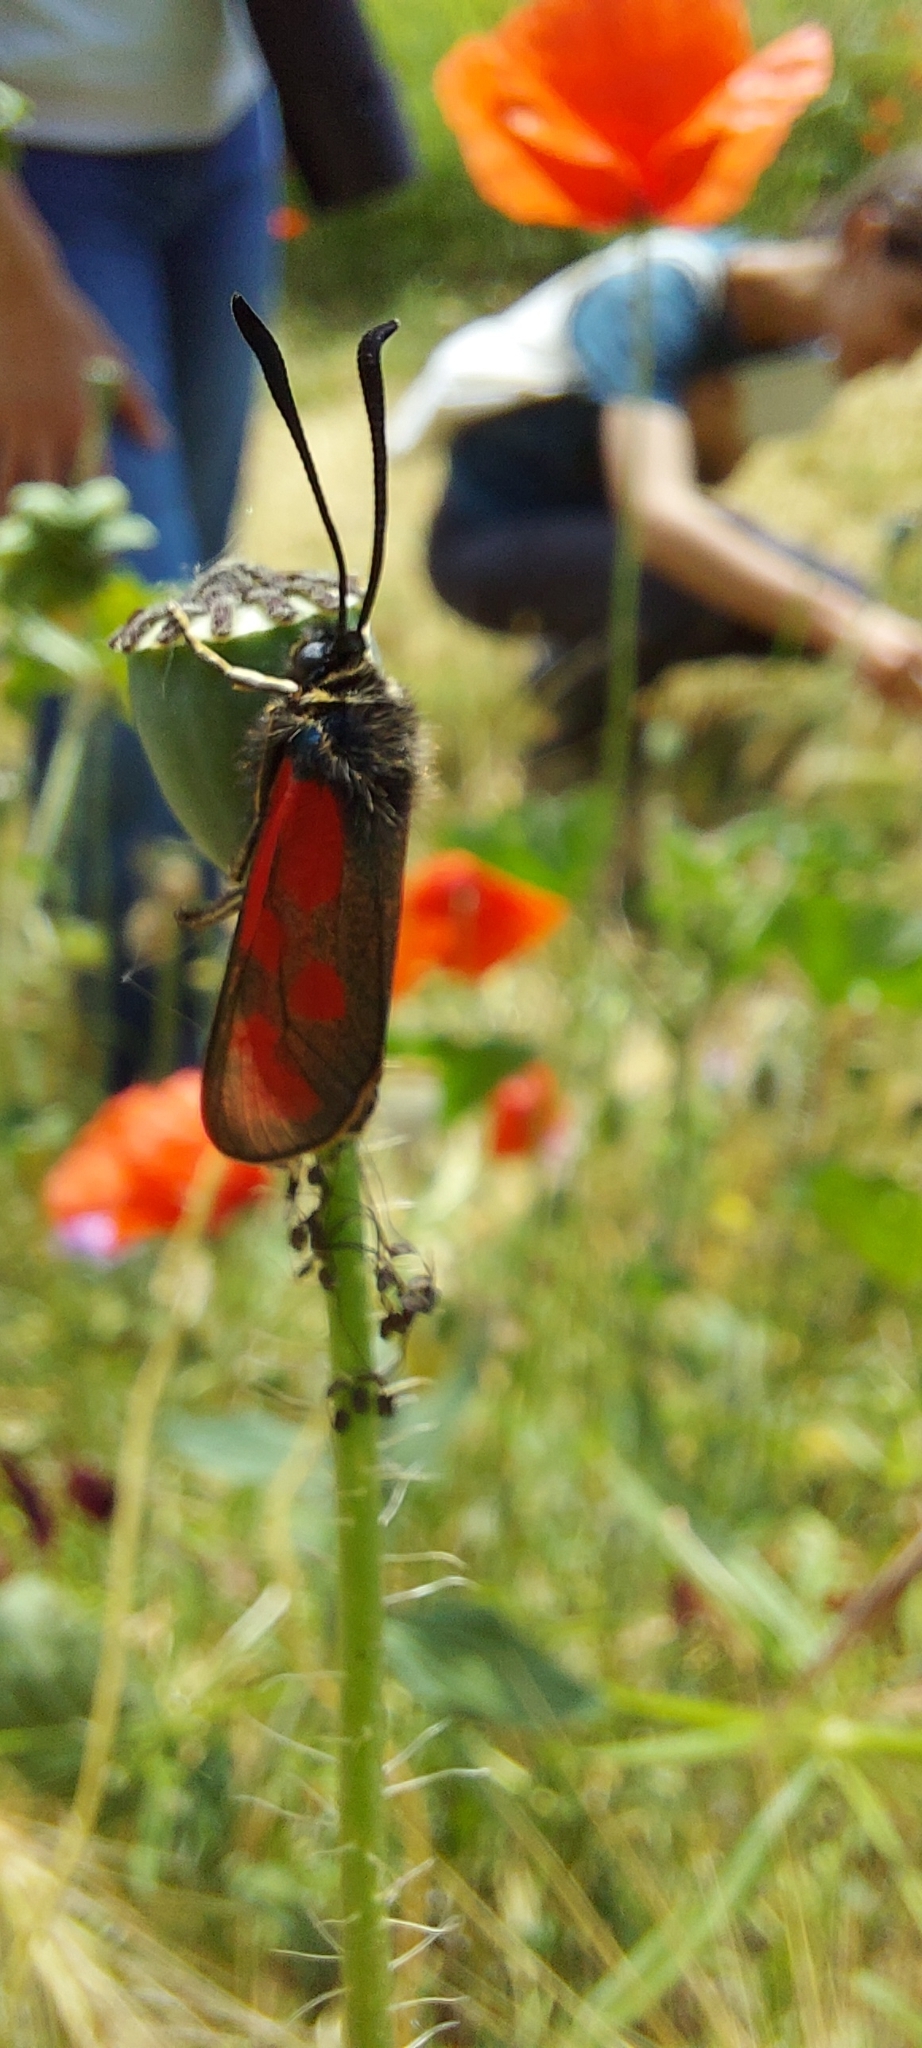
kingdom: Animalia
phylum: Arthropoda
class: Insecta
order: Lepidoptera
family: Zygaenidae
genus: Zygaena
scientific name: Zygaena loti
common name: Slender scotch burnet
